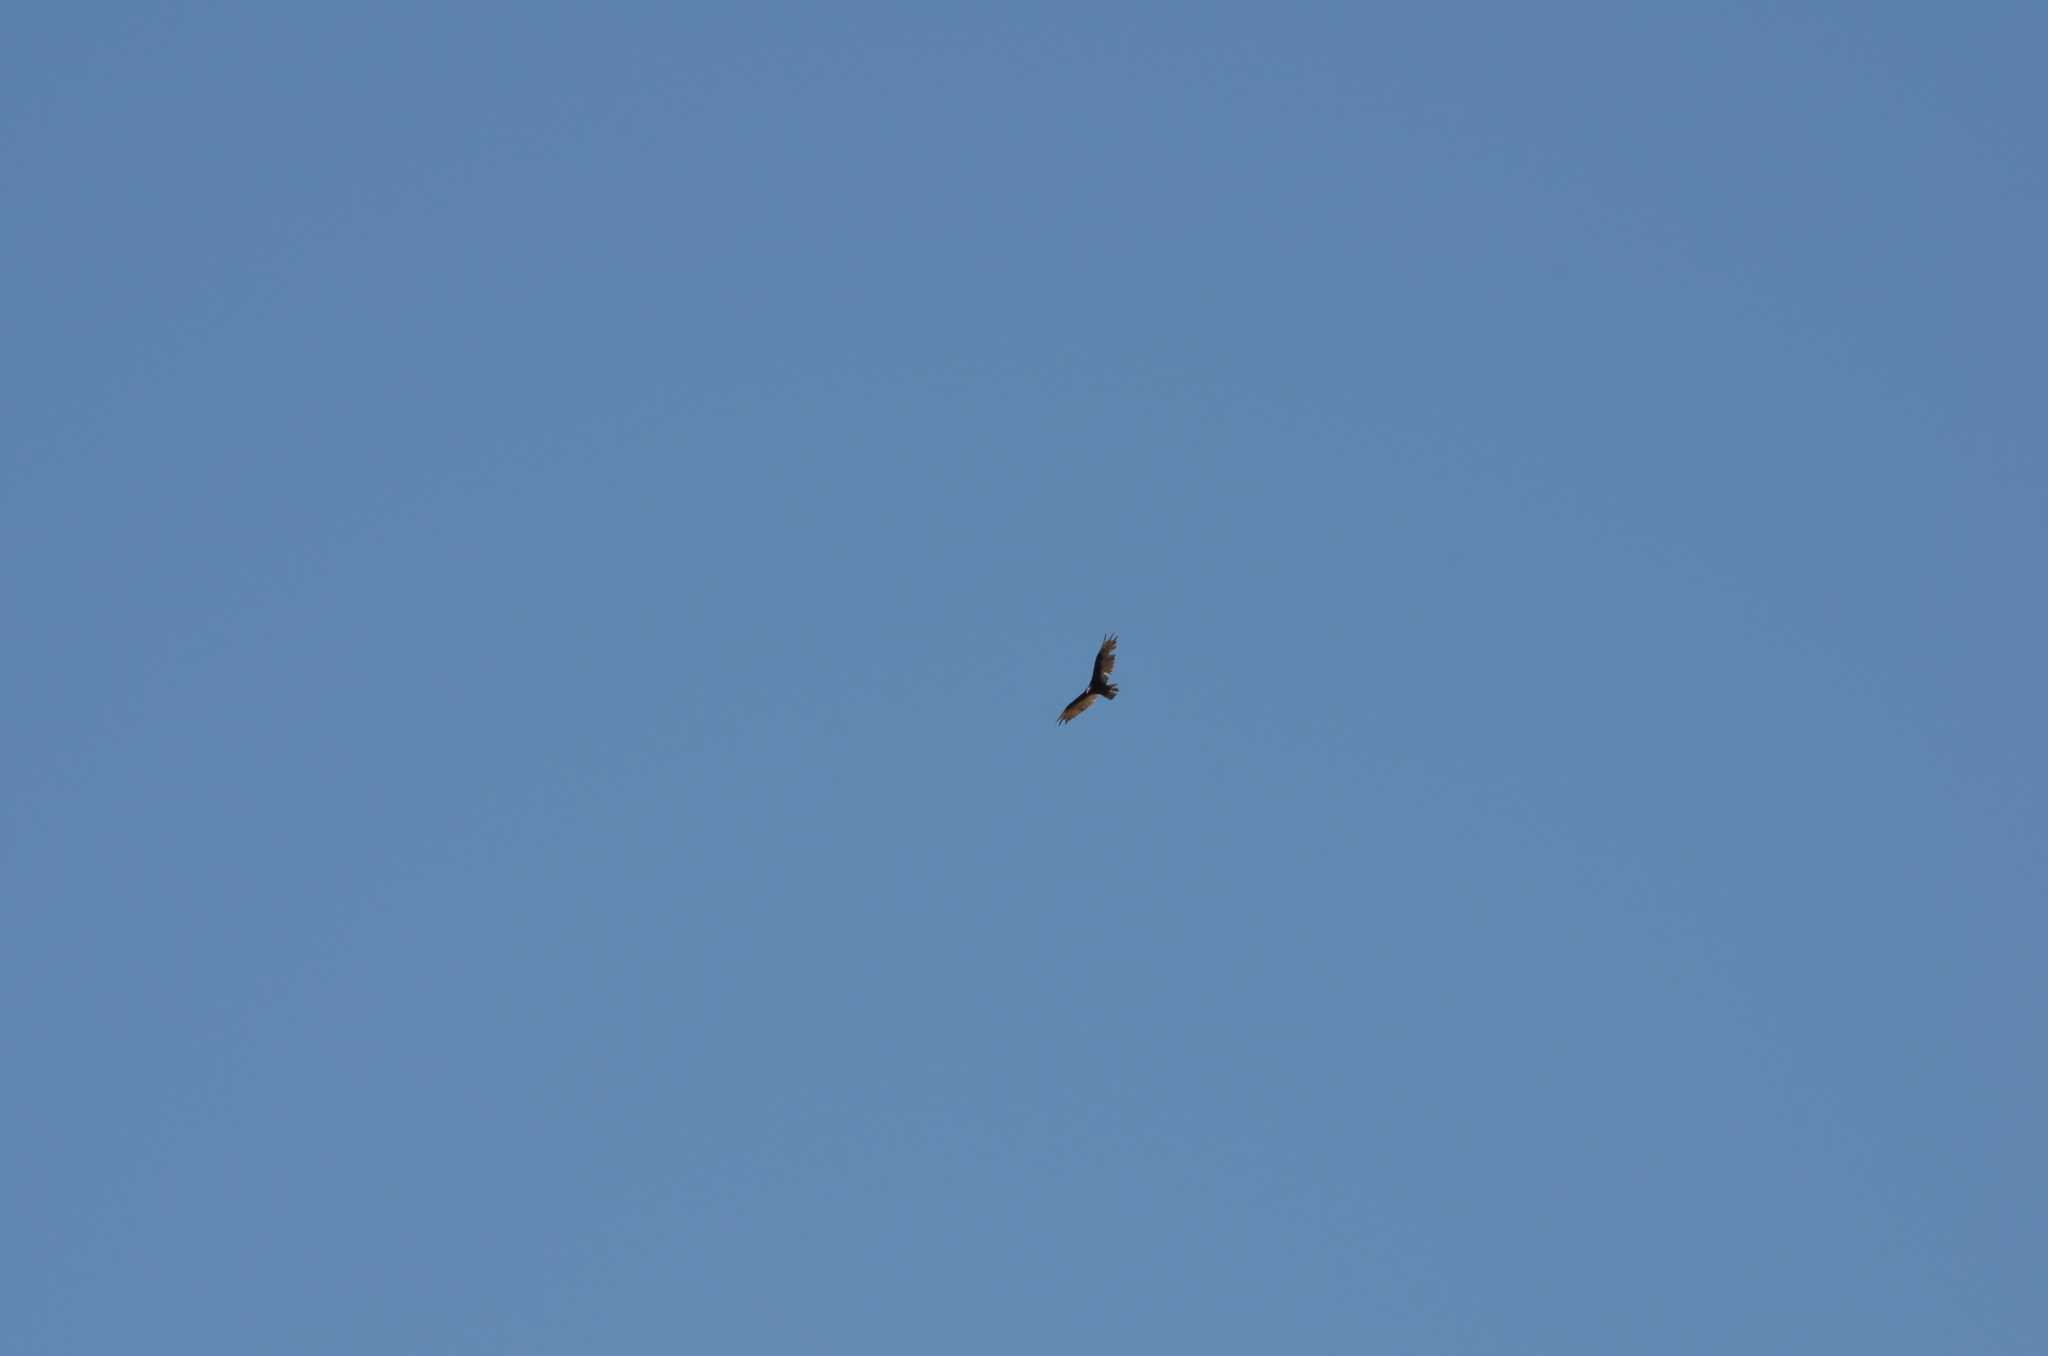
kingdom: Animalia
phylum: Chordata
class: Aves
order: Accipitriformes
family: Cathartidae
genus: Cathartes
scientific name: Cathartes aura
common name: Turkey vulture
